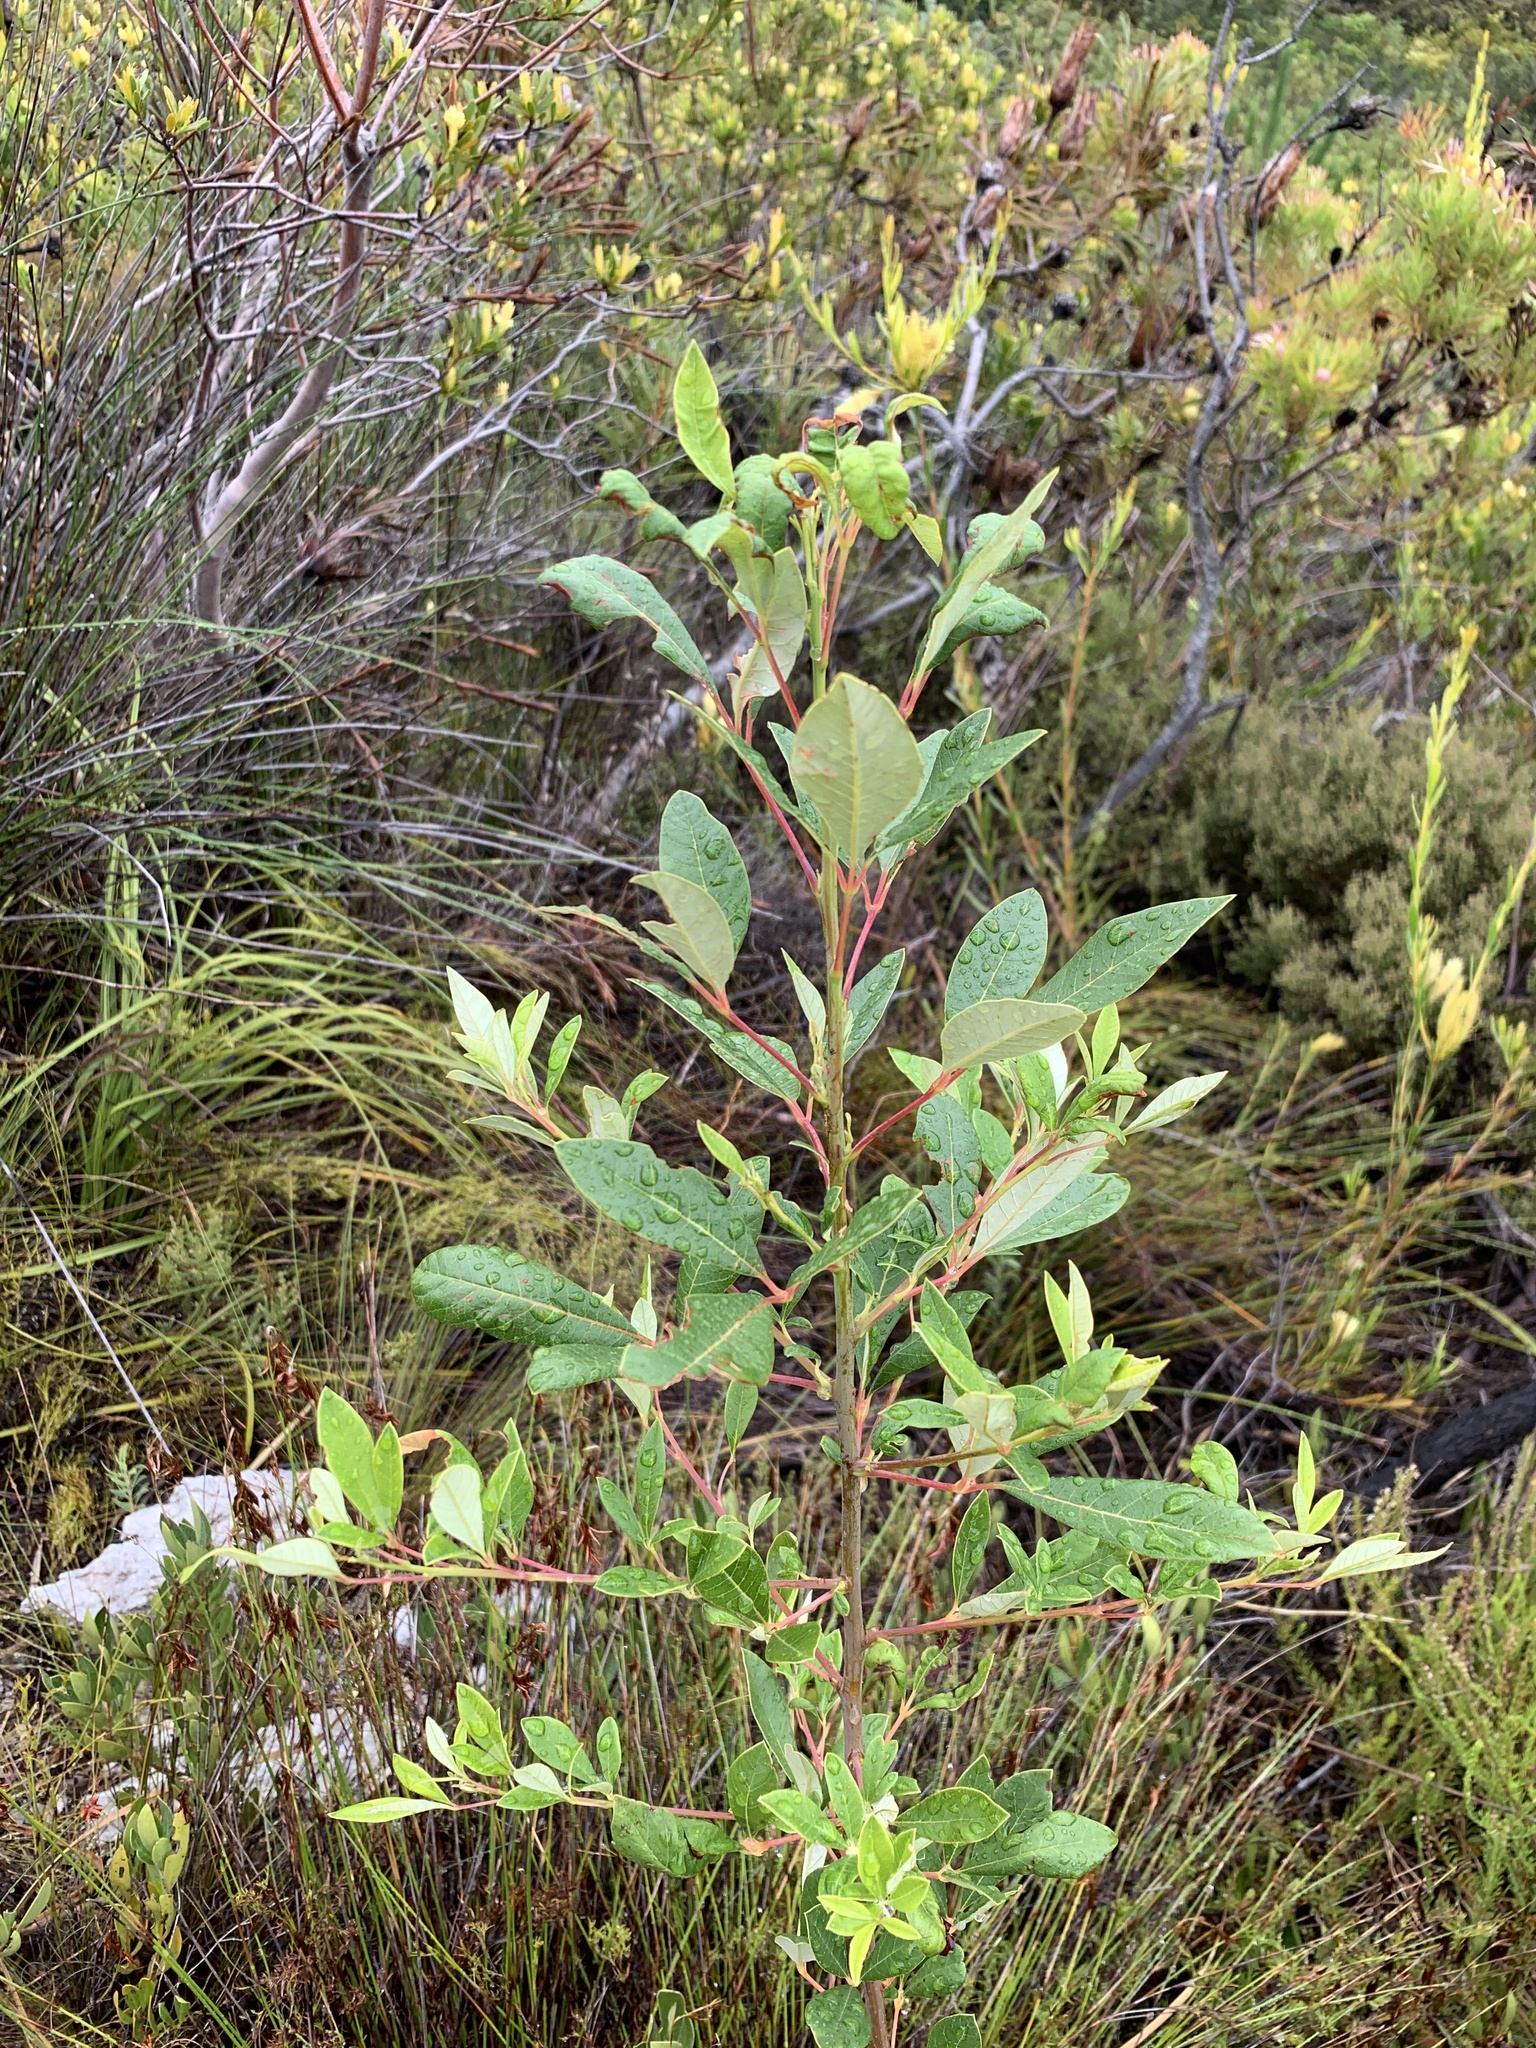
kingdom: Plantae
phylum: Tracheophyta
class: Magnoliopsida
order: Sapindales
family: Anacardiaceae
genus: Searsia
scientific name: Searsia tomentosa
